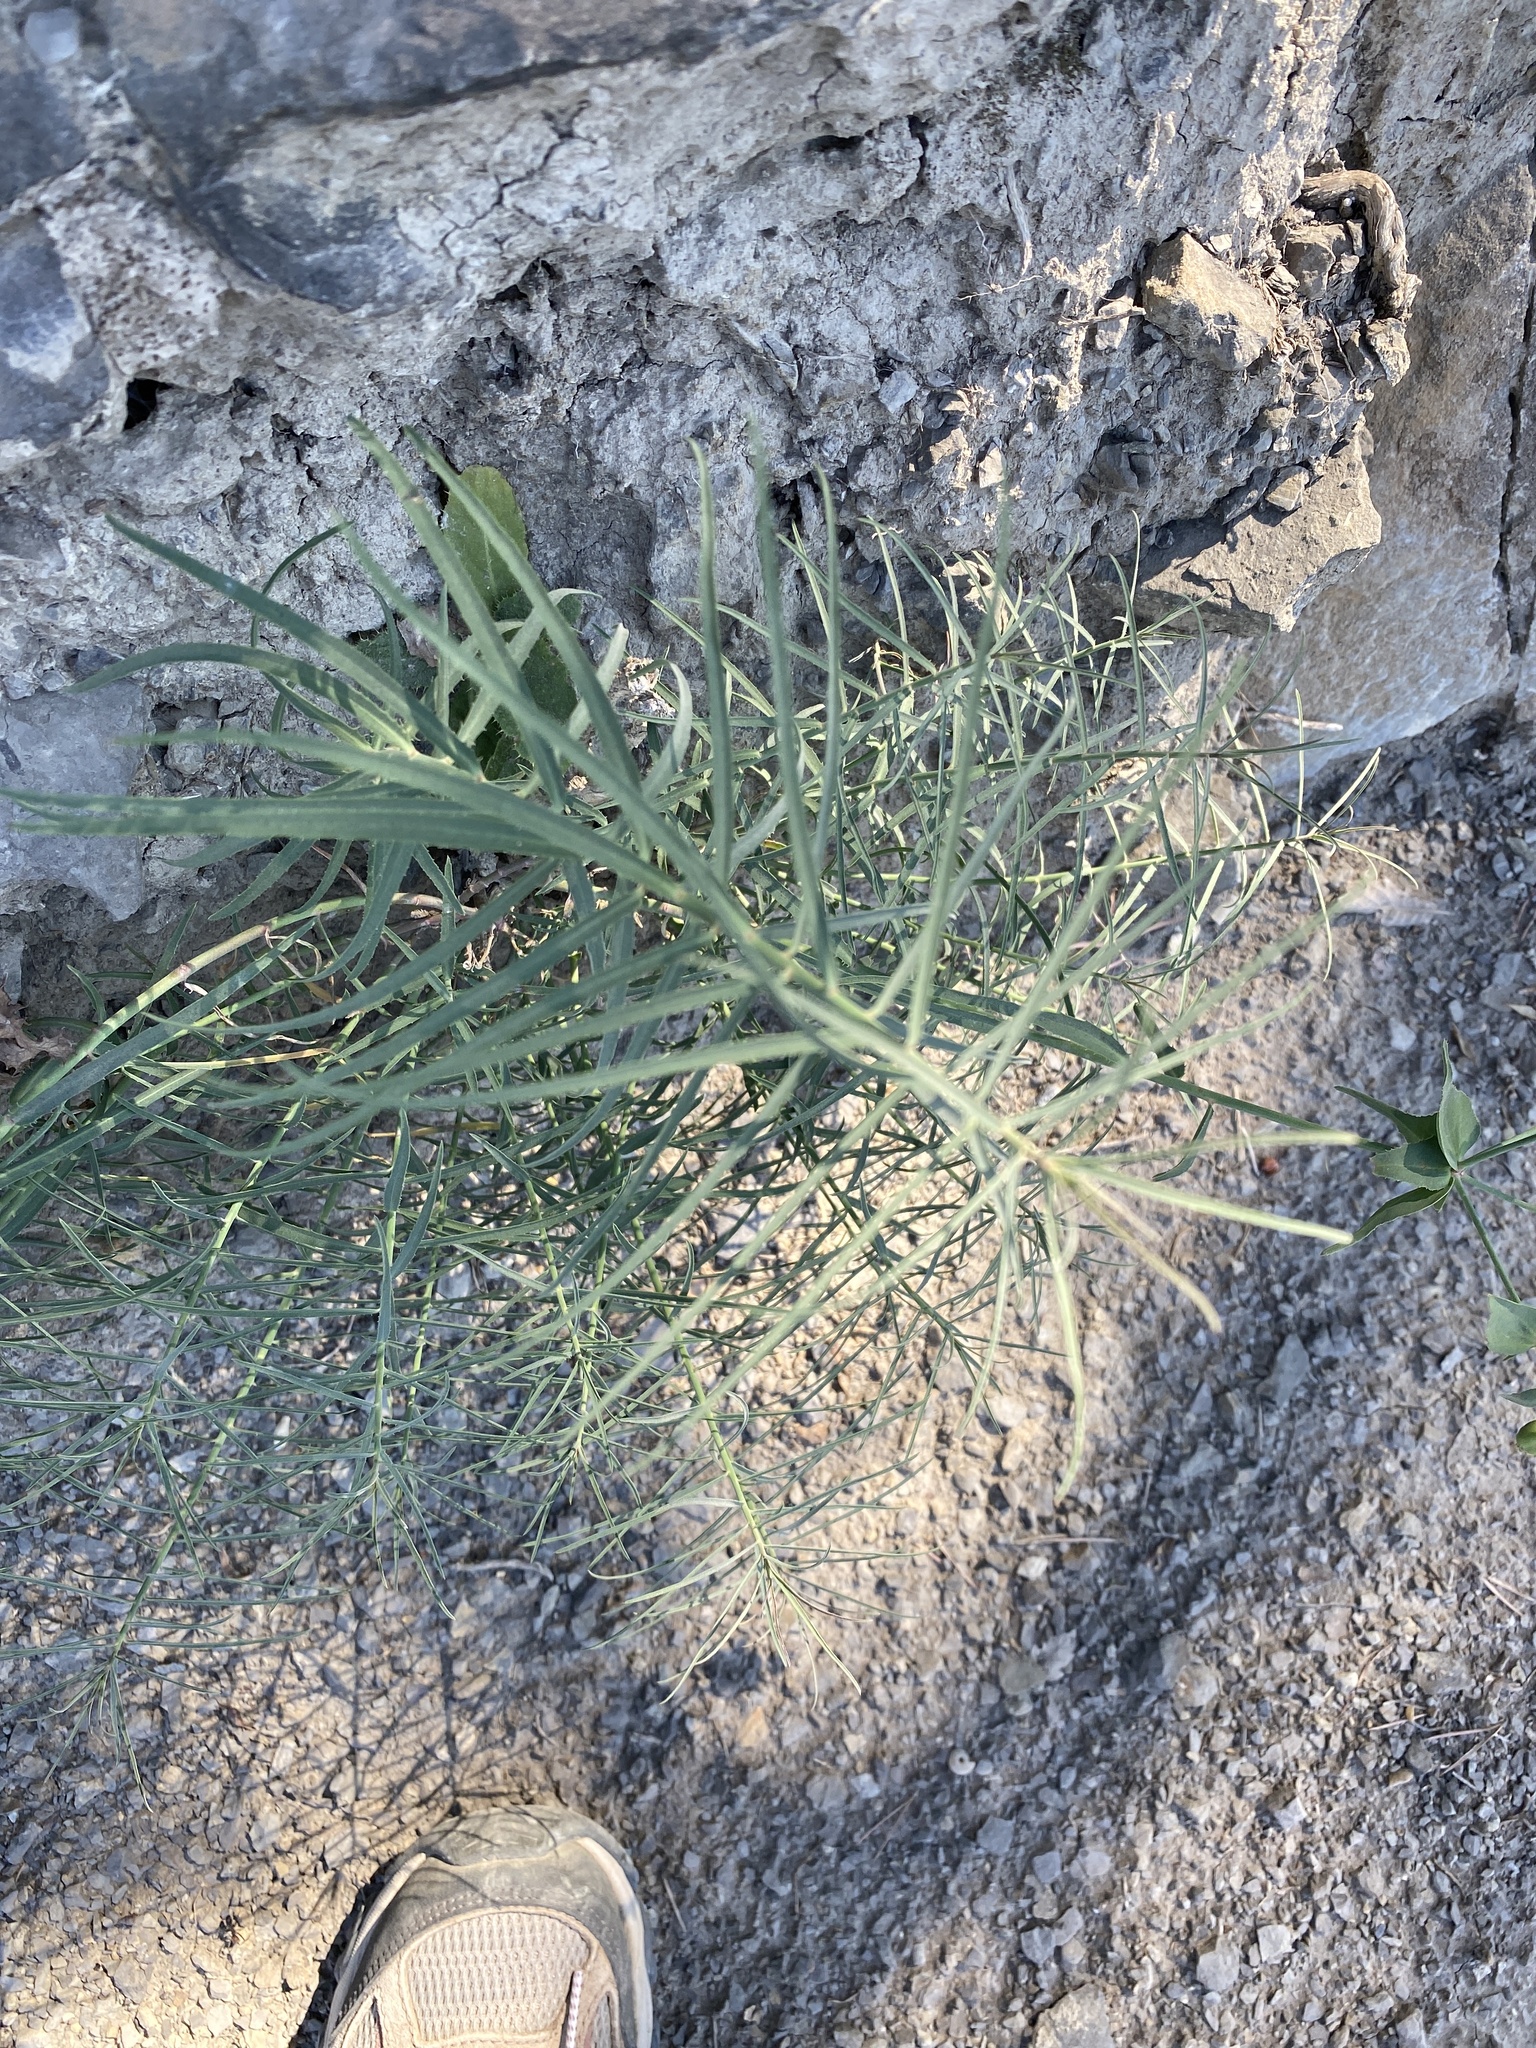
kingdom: Plantae
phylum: Tracheophyta
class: Magnoliopsida
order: Malpighiales
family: Euphorbiaceae
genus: Euphorbia
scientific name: Euphorbia serrata
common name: Serrate spurge
